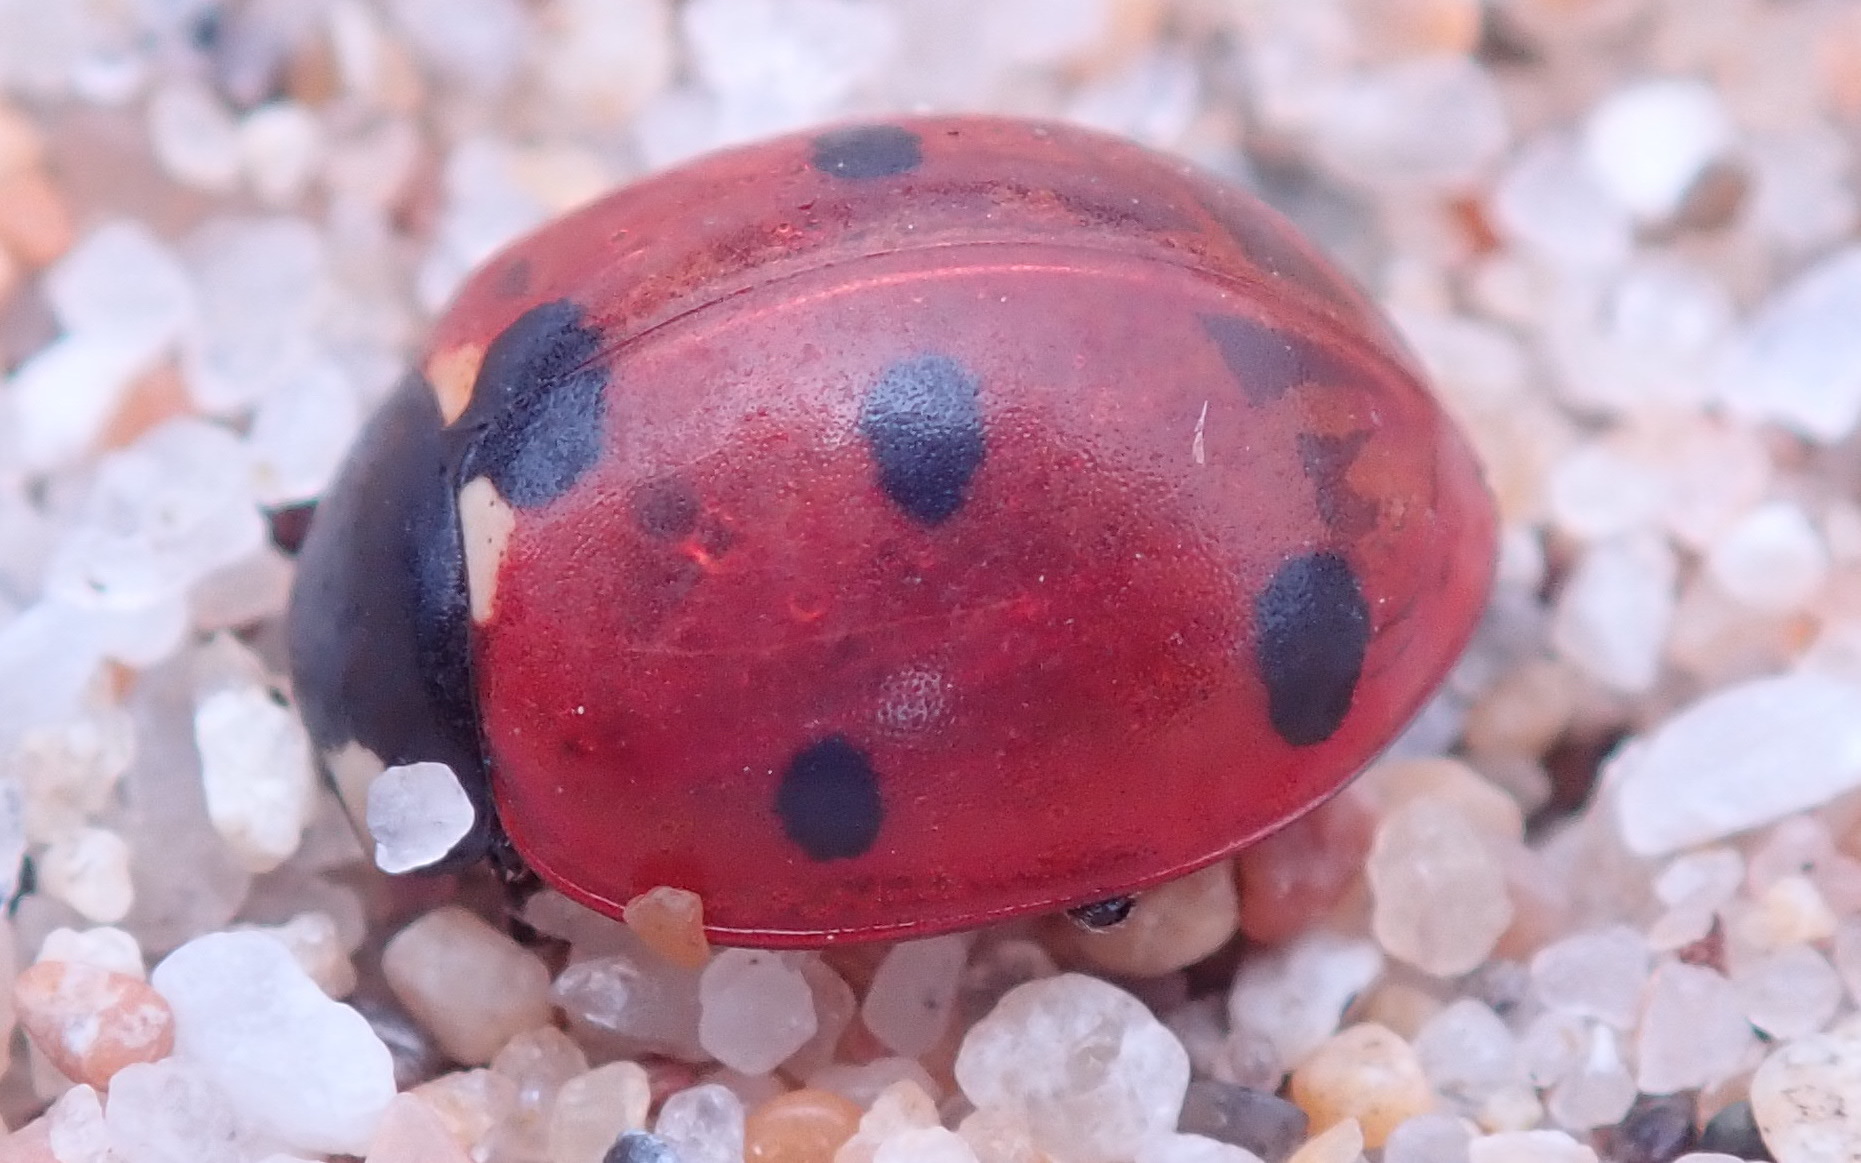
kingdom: Animalia
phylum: Arthropoda
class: Insecta
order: Coleoptera
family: Coccinellidae
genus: Coccinella
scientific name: Coccinella septempunctata
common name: Sevenspotted lady beetle
